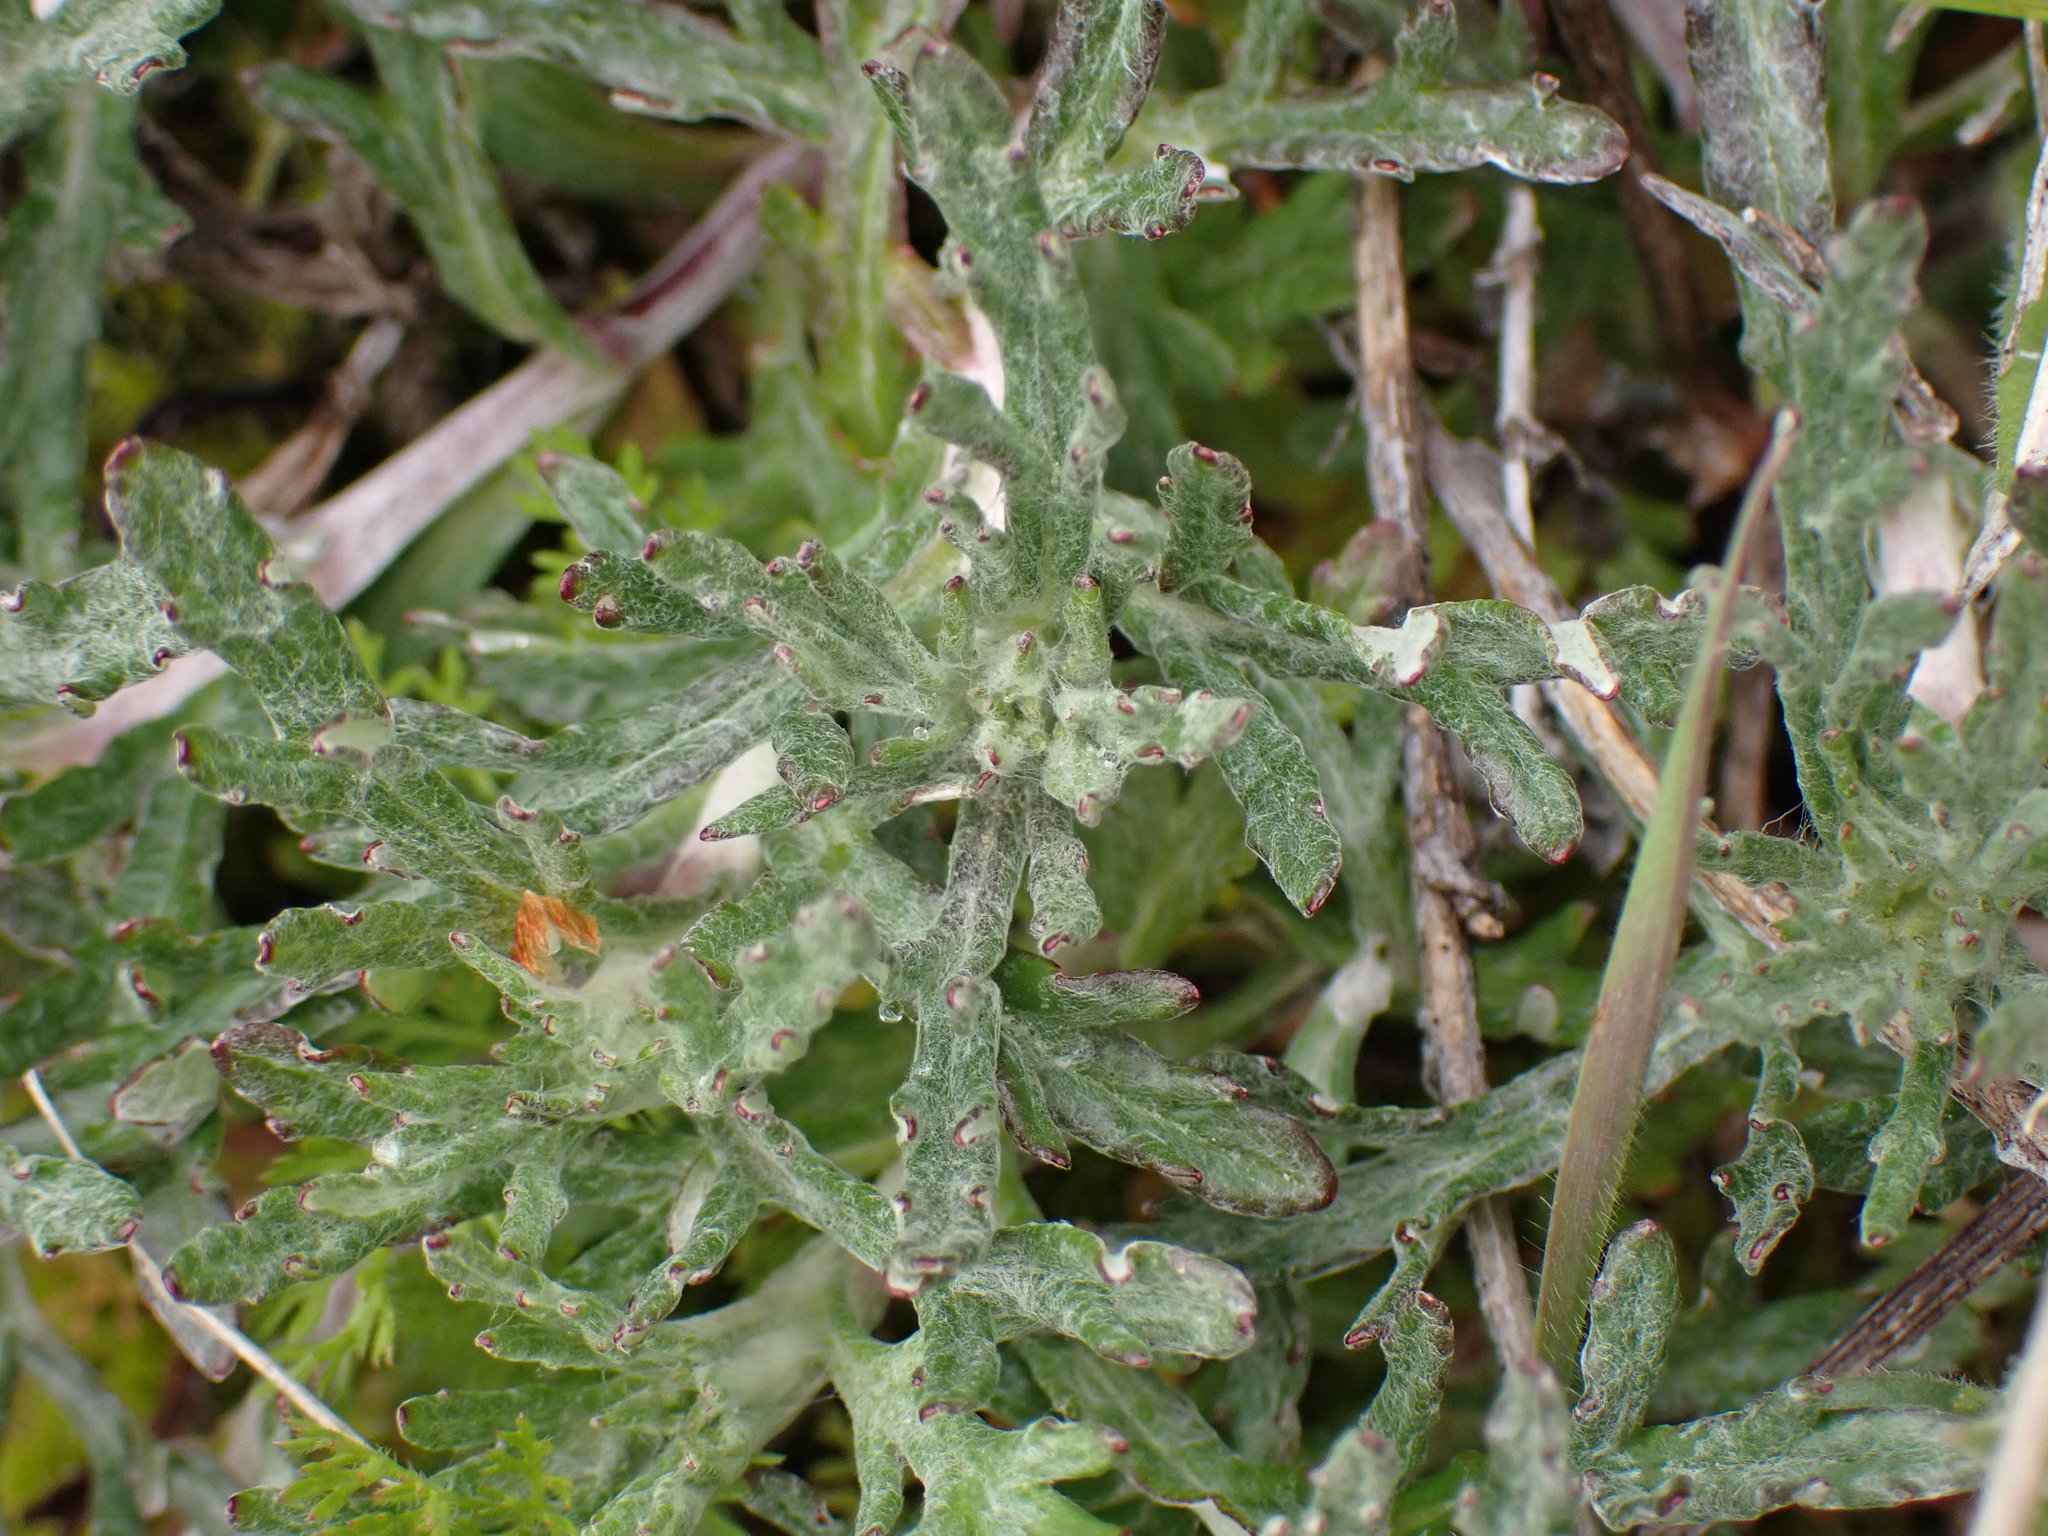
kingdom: Plantae
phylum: Tracheophyta
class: Magnoliopsida
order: Asterales
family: Asteraceae
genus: Eriophyllum
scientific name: Eriophyllum lanatum
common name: Common woolly-sunflower
